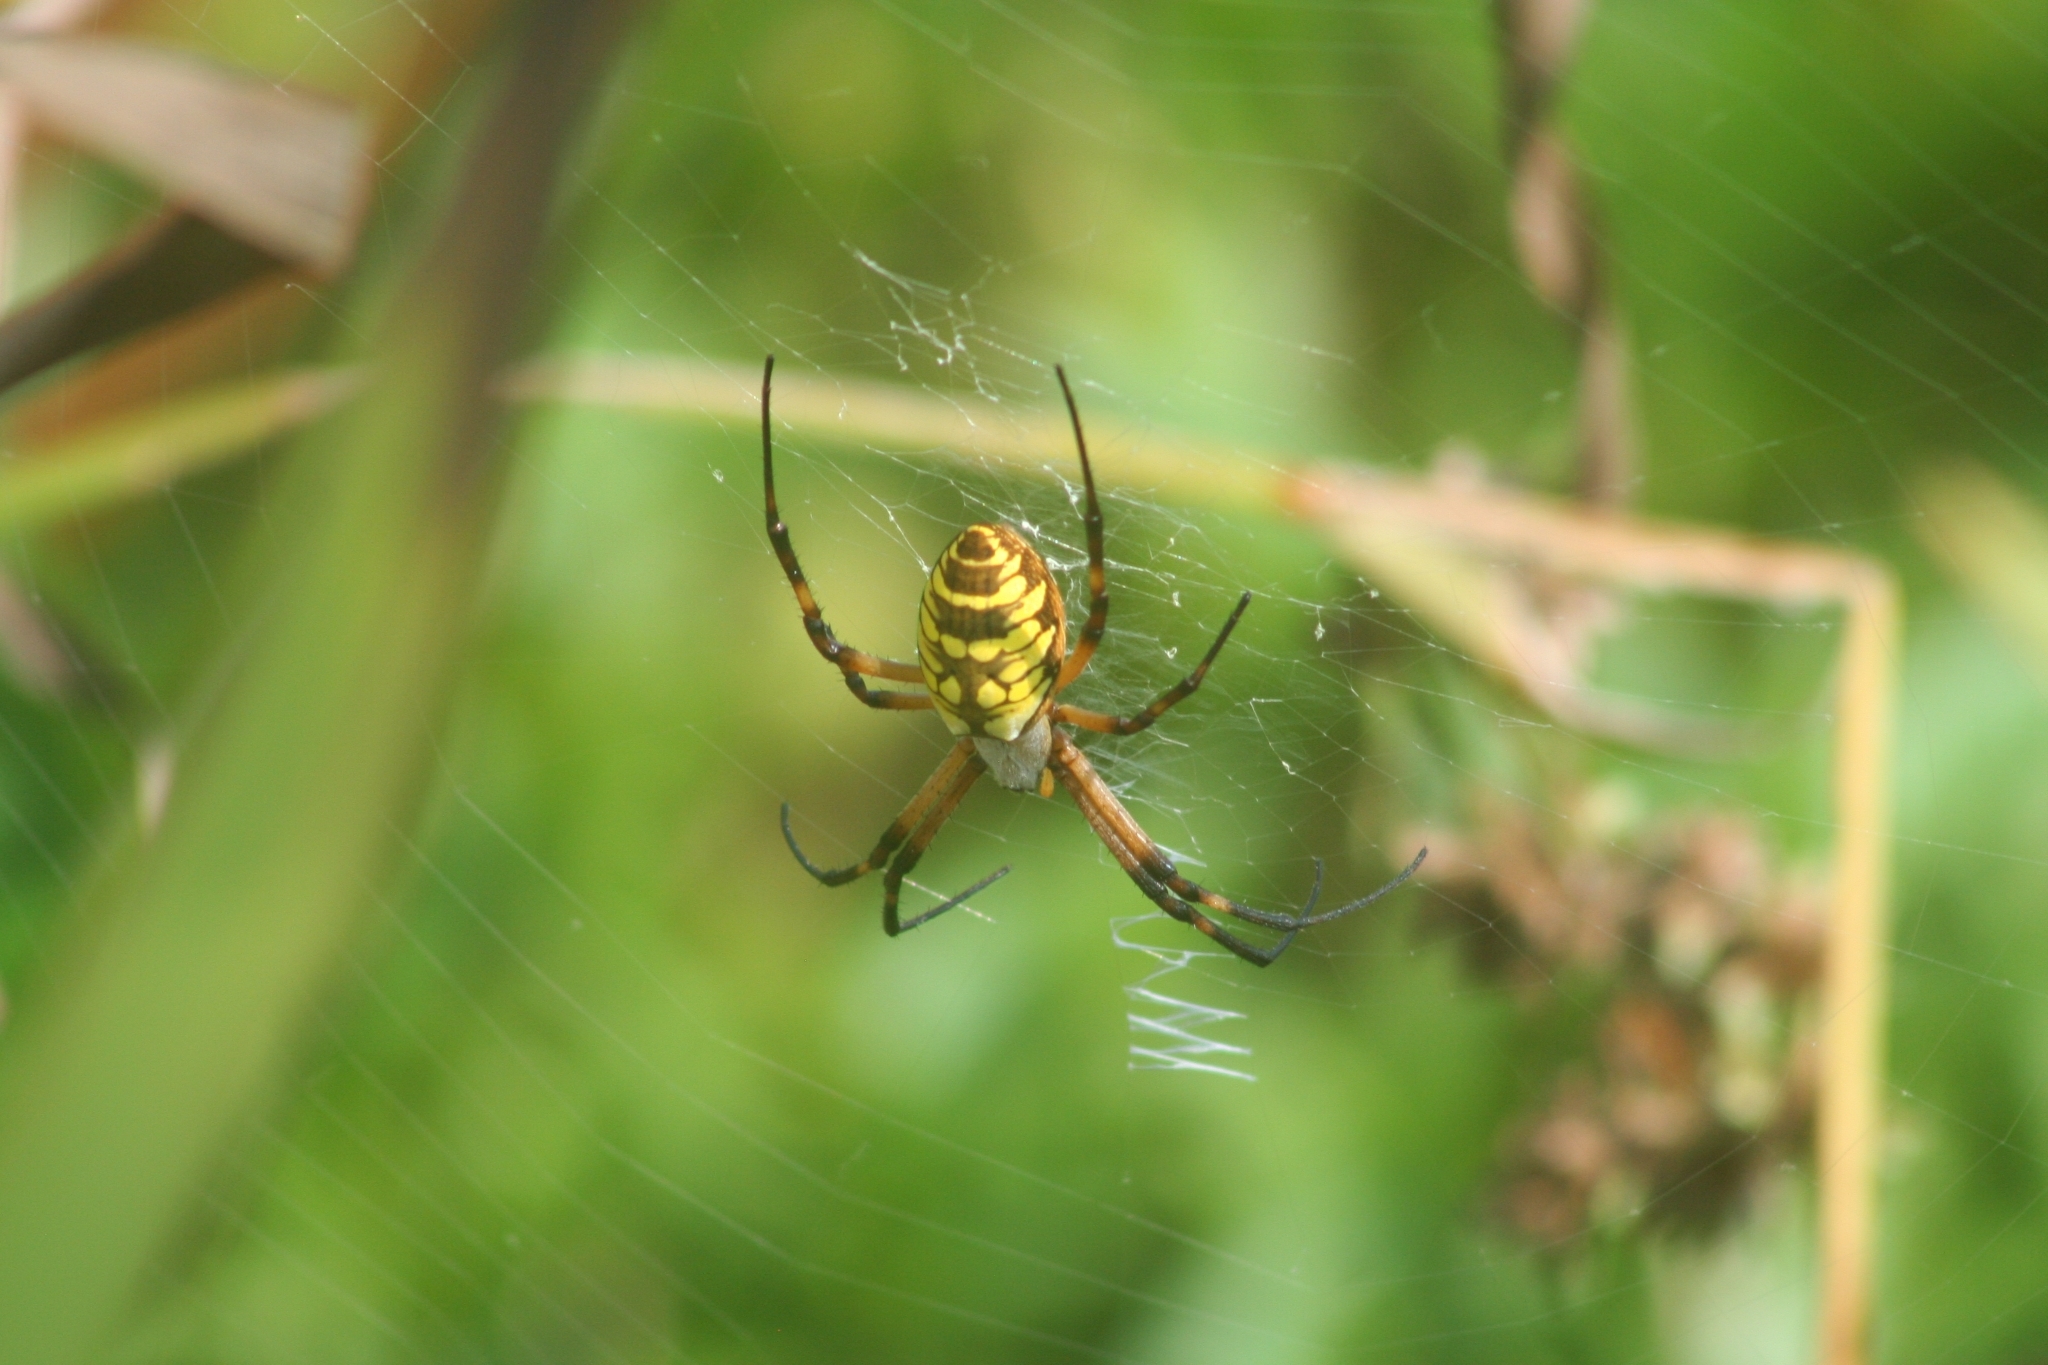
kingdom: Animalia
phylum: Arthropoda
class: Arachnida
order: Araneae
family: Araneidae
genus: Argiope
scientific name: Argiope aurantia
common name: Orb weavers
